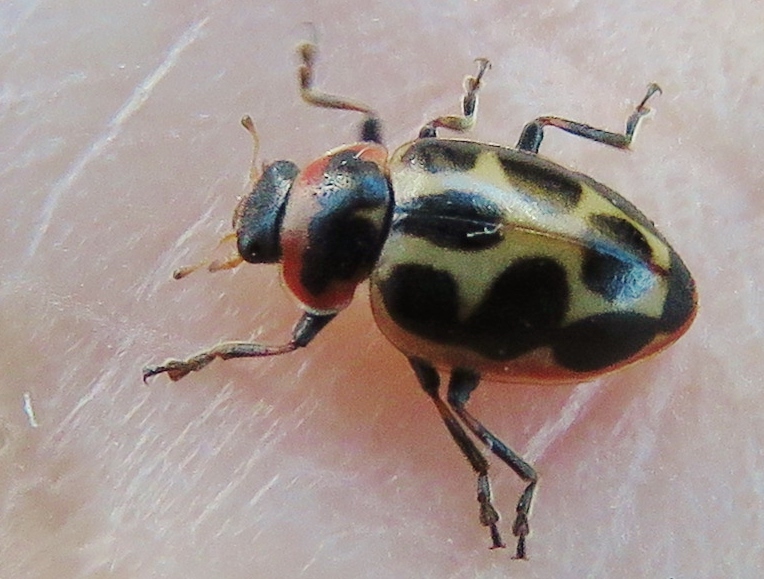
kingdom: Animalia
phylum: Arthropoda
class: Insecta
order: Coleoptera
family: Coccinellidae
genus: Naemia
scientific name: Naemia seriata
